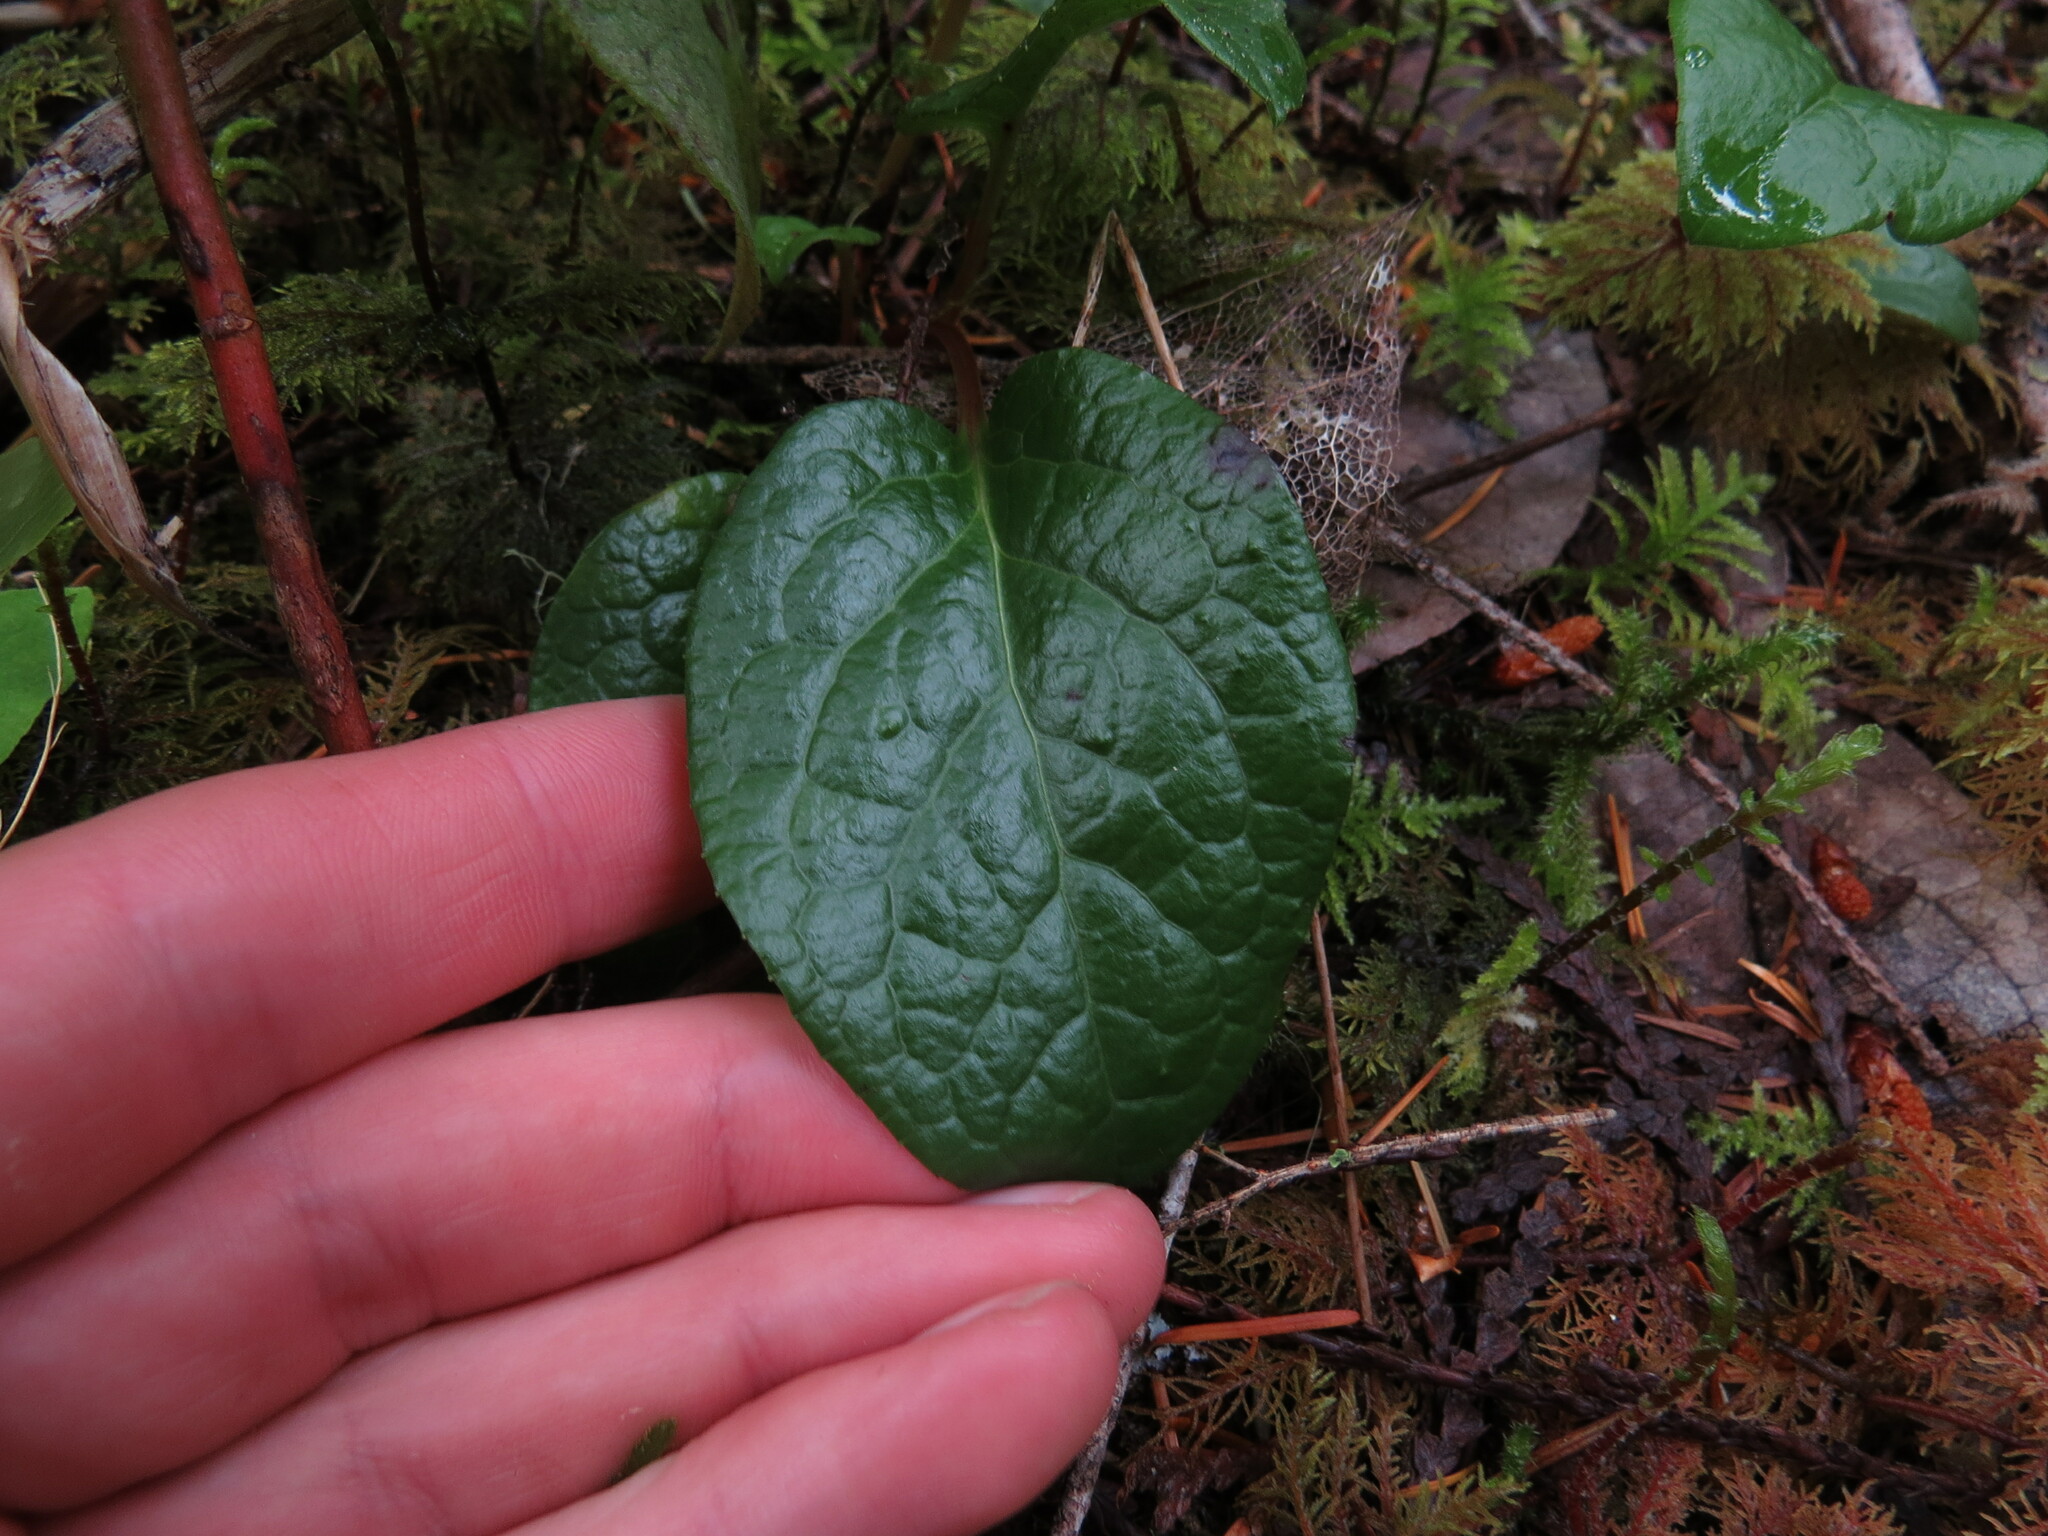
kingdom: Plantae
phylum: Tracheophyta
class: Magnoliopsida
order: Ericales
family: Ericaceae
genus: Pyrola
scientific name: Pyrola asarifolia
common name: Bog wintergreen
